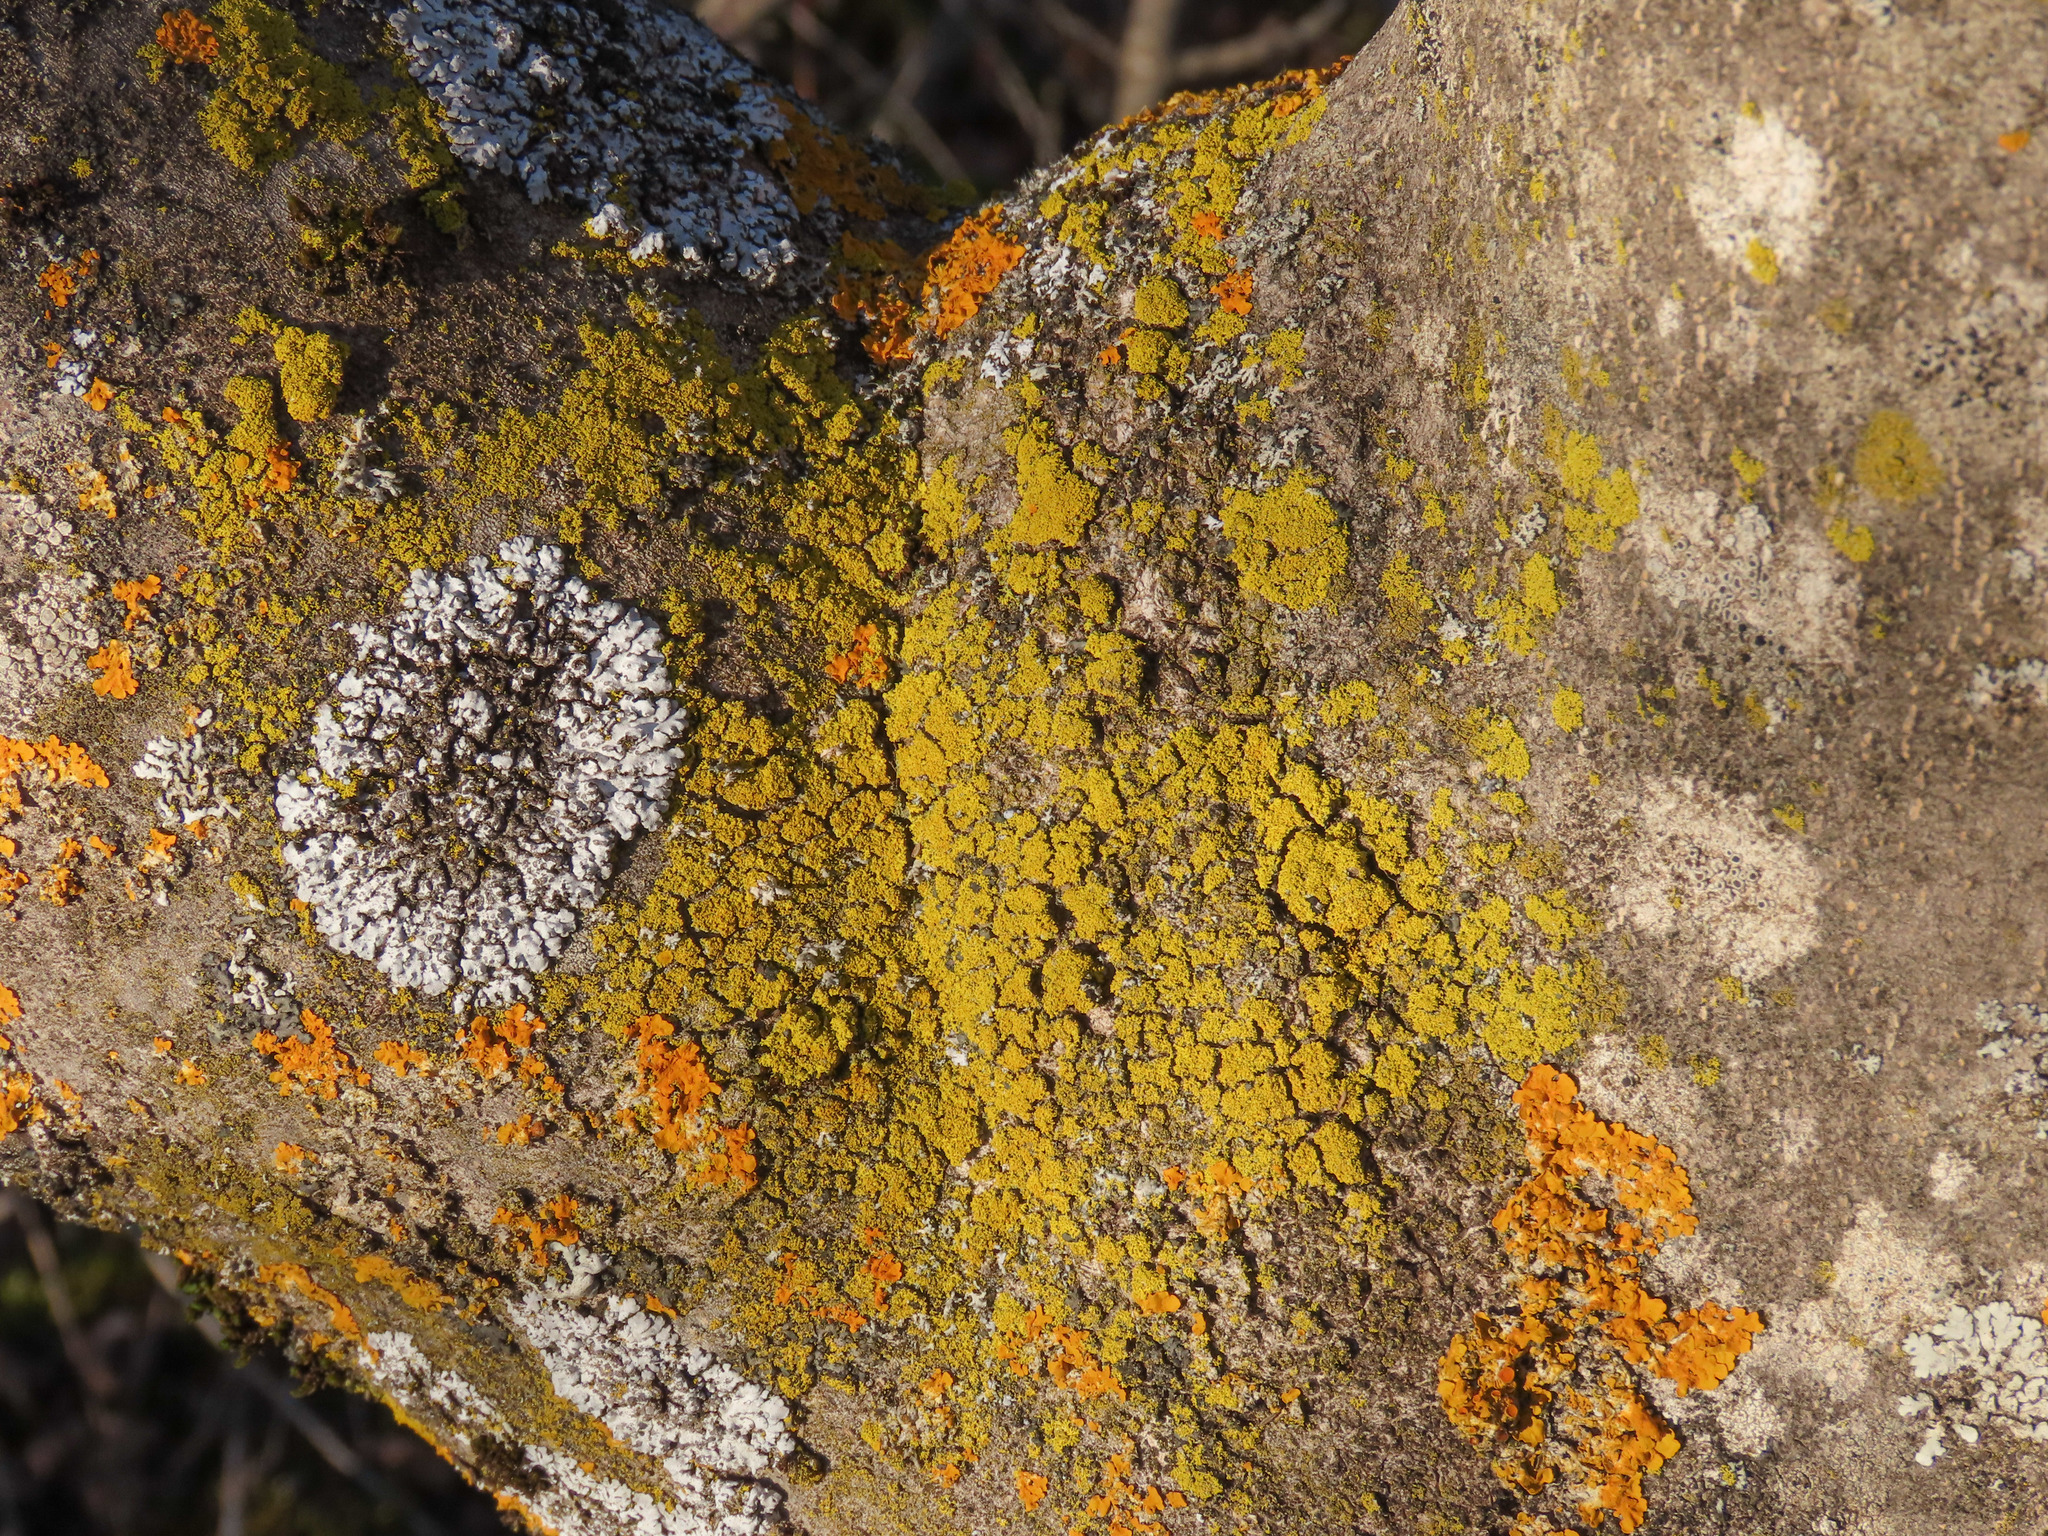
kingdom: Fungi
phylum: Ascomycota
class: Candelariomycetes
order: Candelariales
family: Candelariaceae
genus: Candelaria
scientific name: Candelaria concolor
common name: Candleflame lichen
